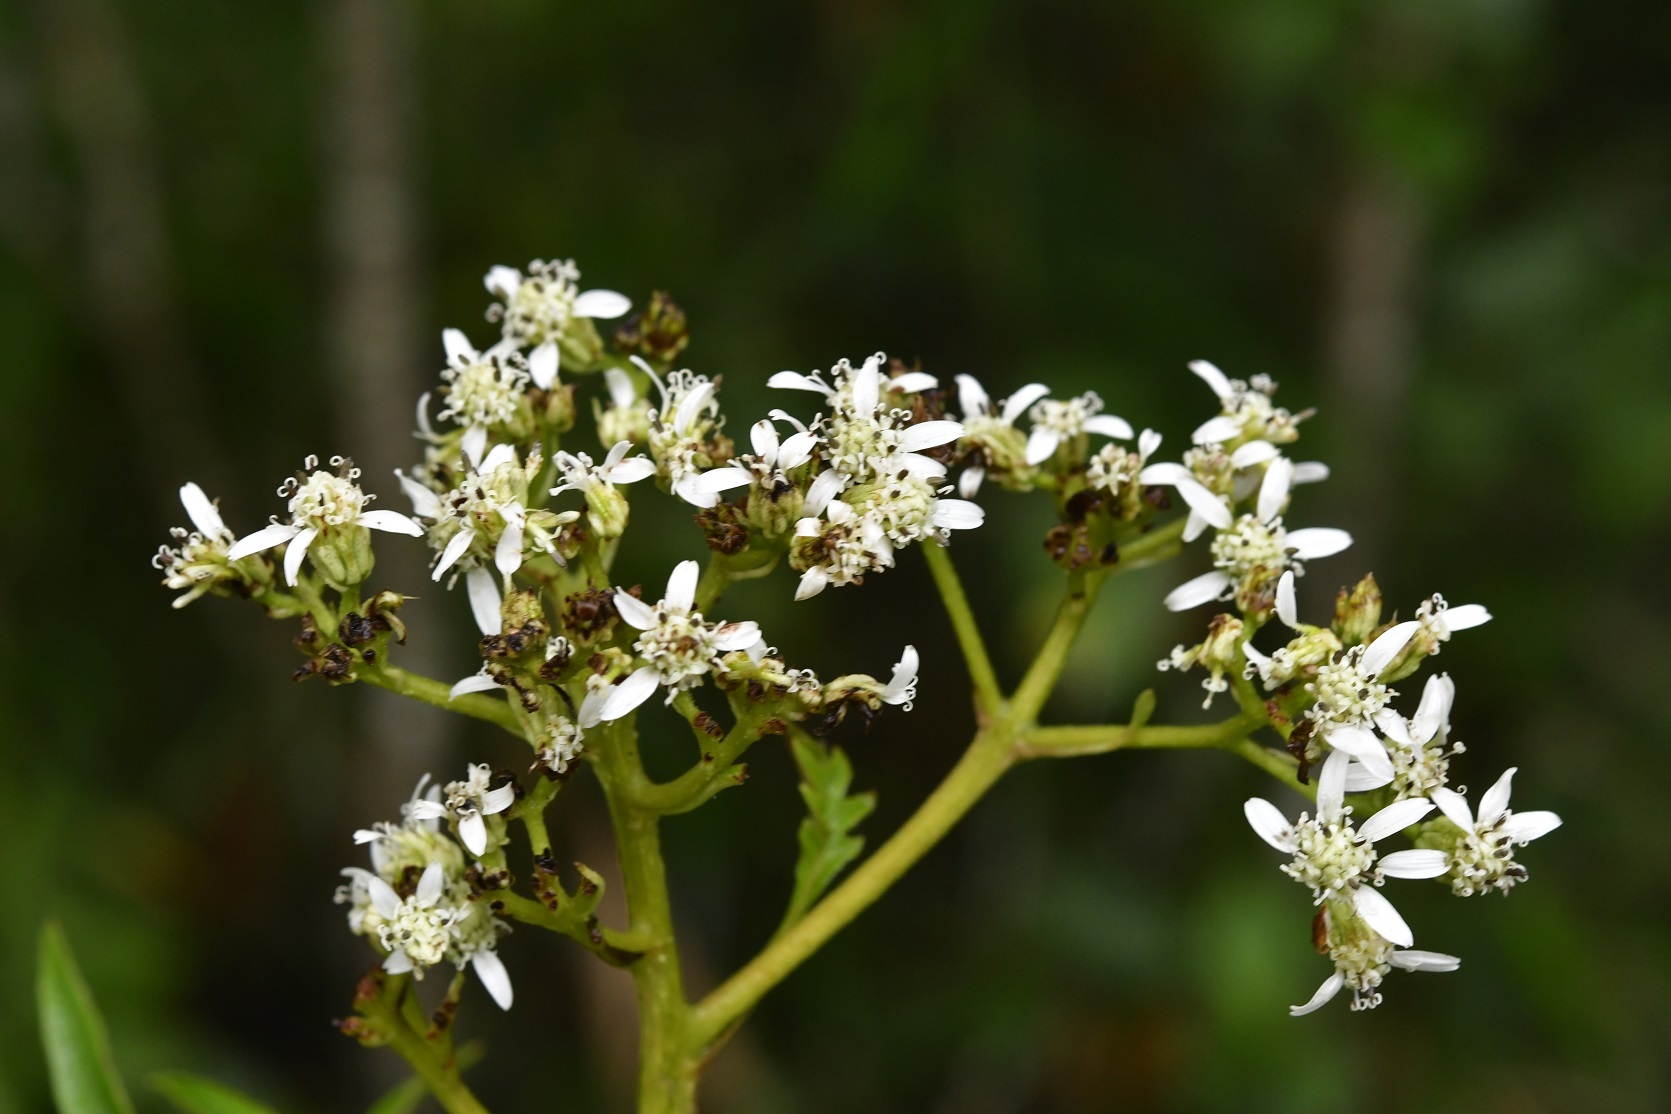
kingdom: Plantae
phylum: Tracheophyta
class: Magnoliopsida
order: Asterales
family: Asteraceae
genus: Verbesina
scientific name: Verbesina gigantea
